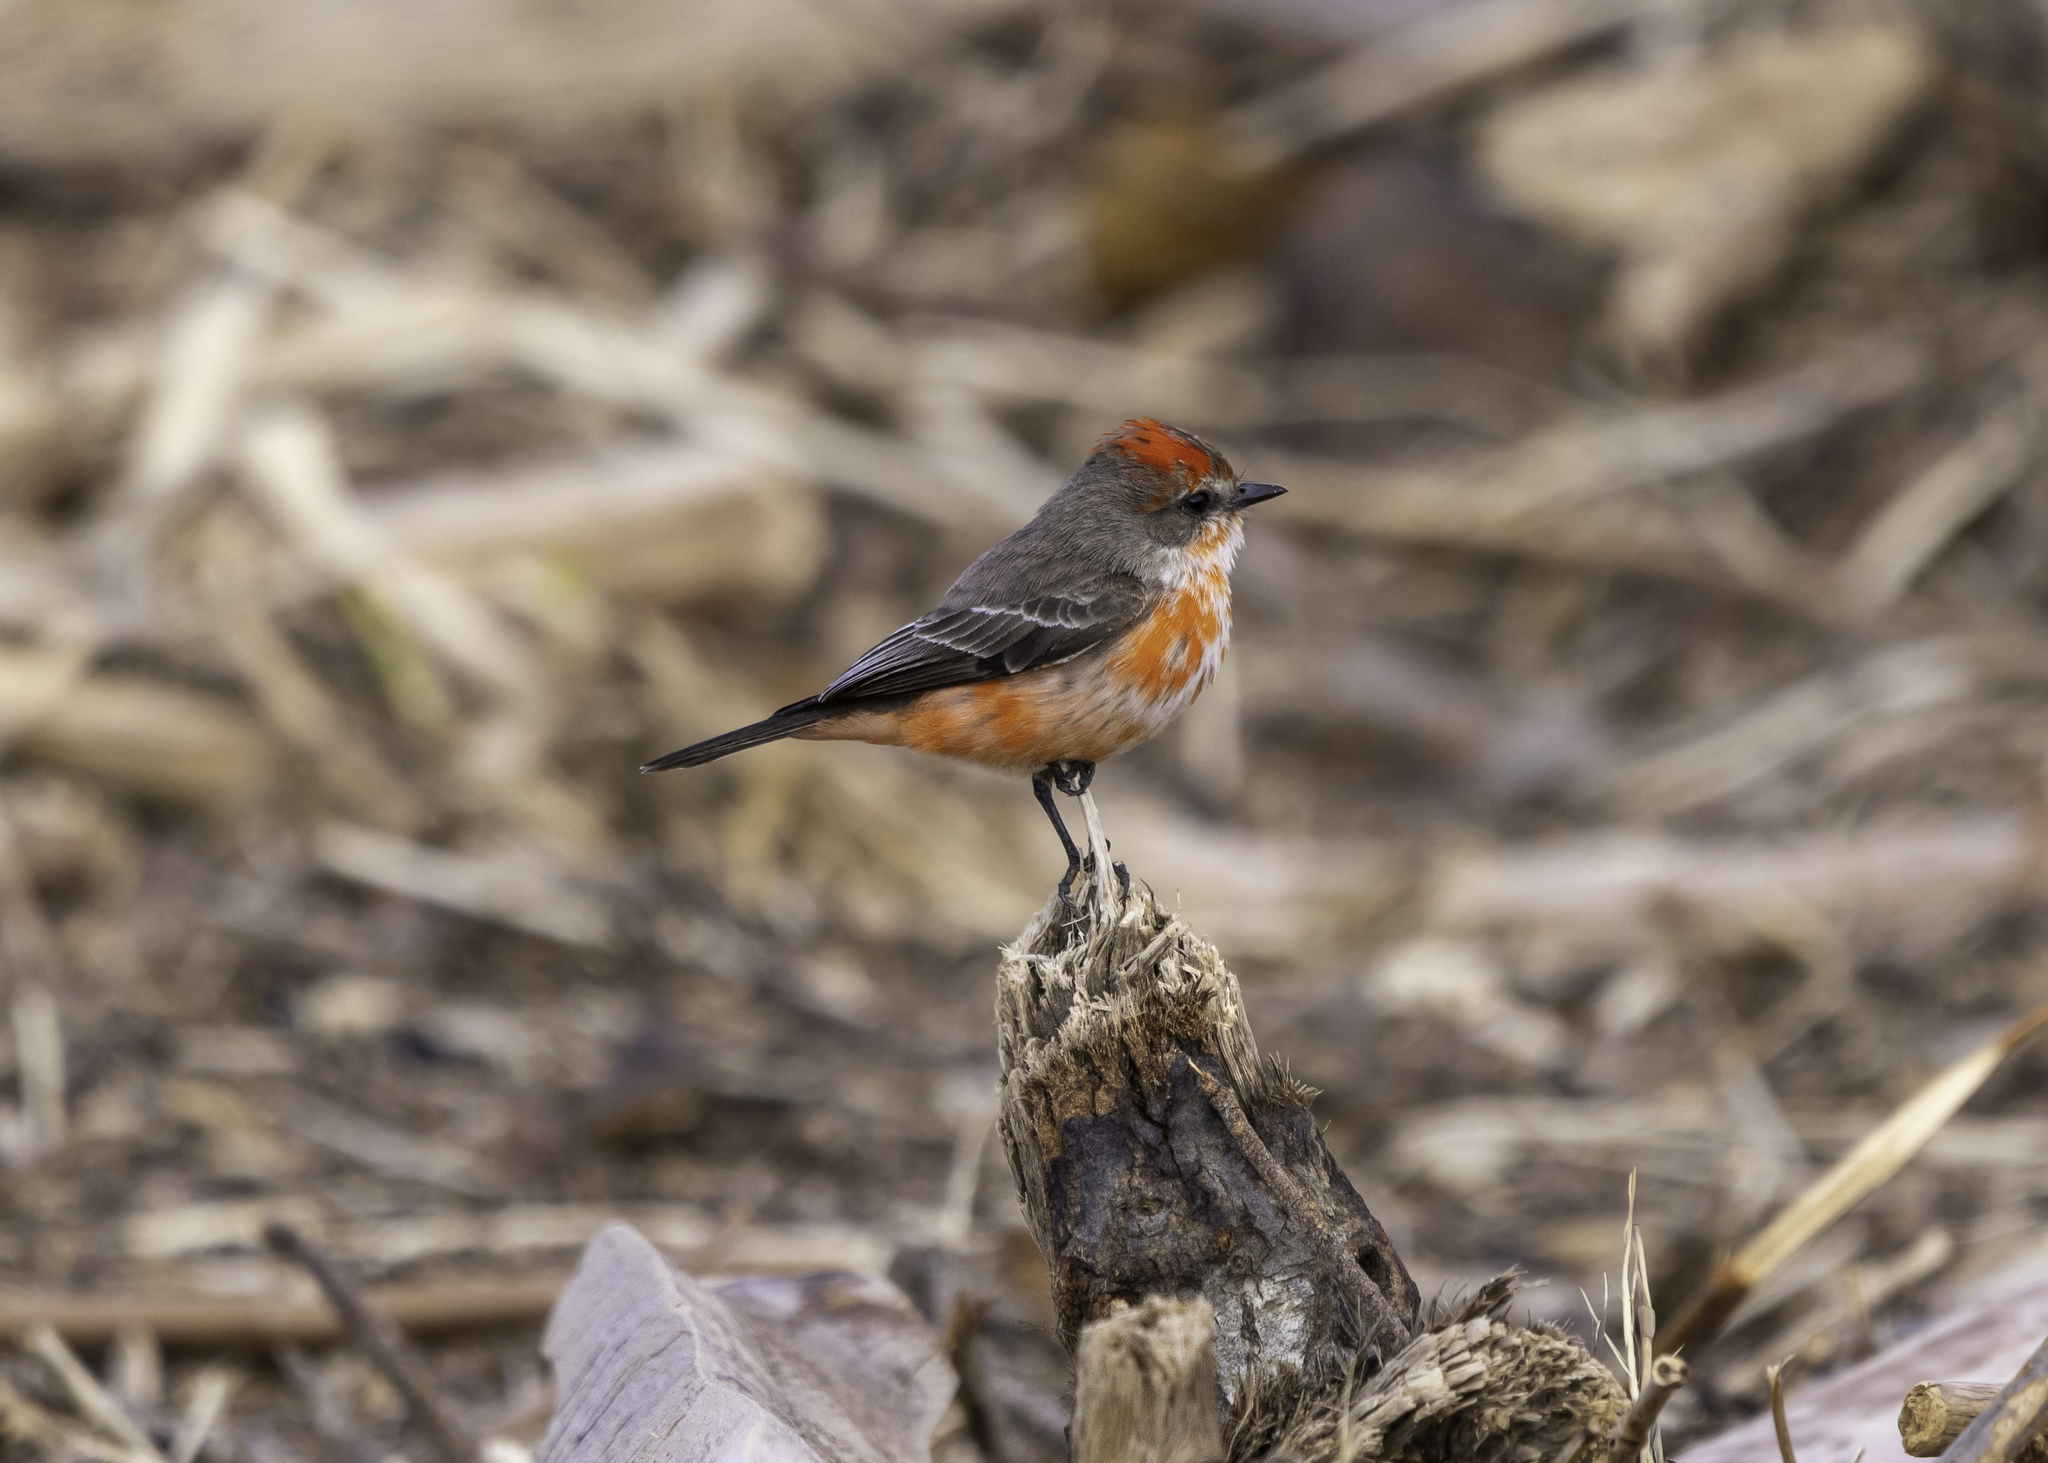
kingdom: Animalia
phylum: Chordata
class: Aves
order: Passeriformes
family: Tyrannidae
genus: Pyrocephalus
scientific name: Pyrocephalus rubinus
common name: Vermilion flycatcher
